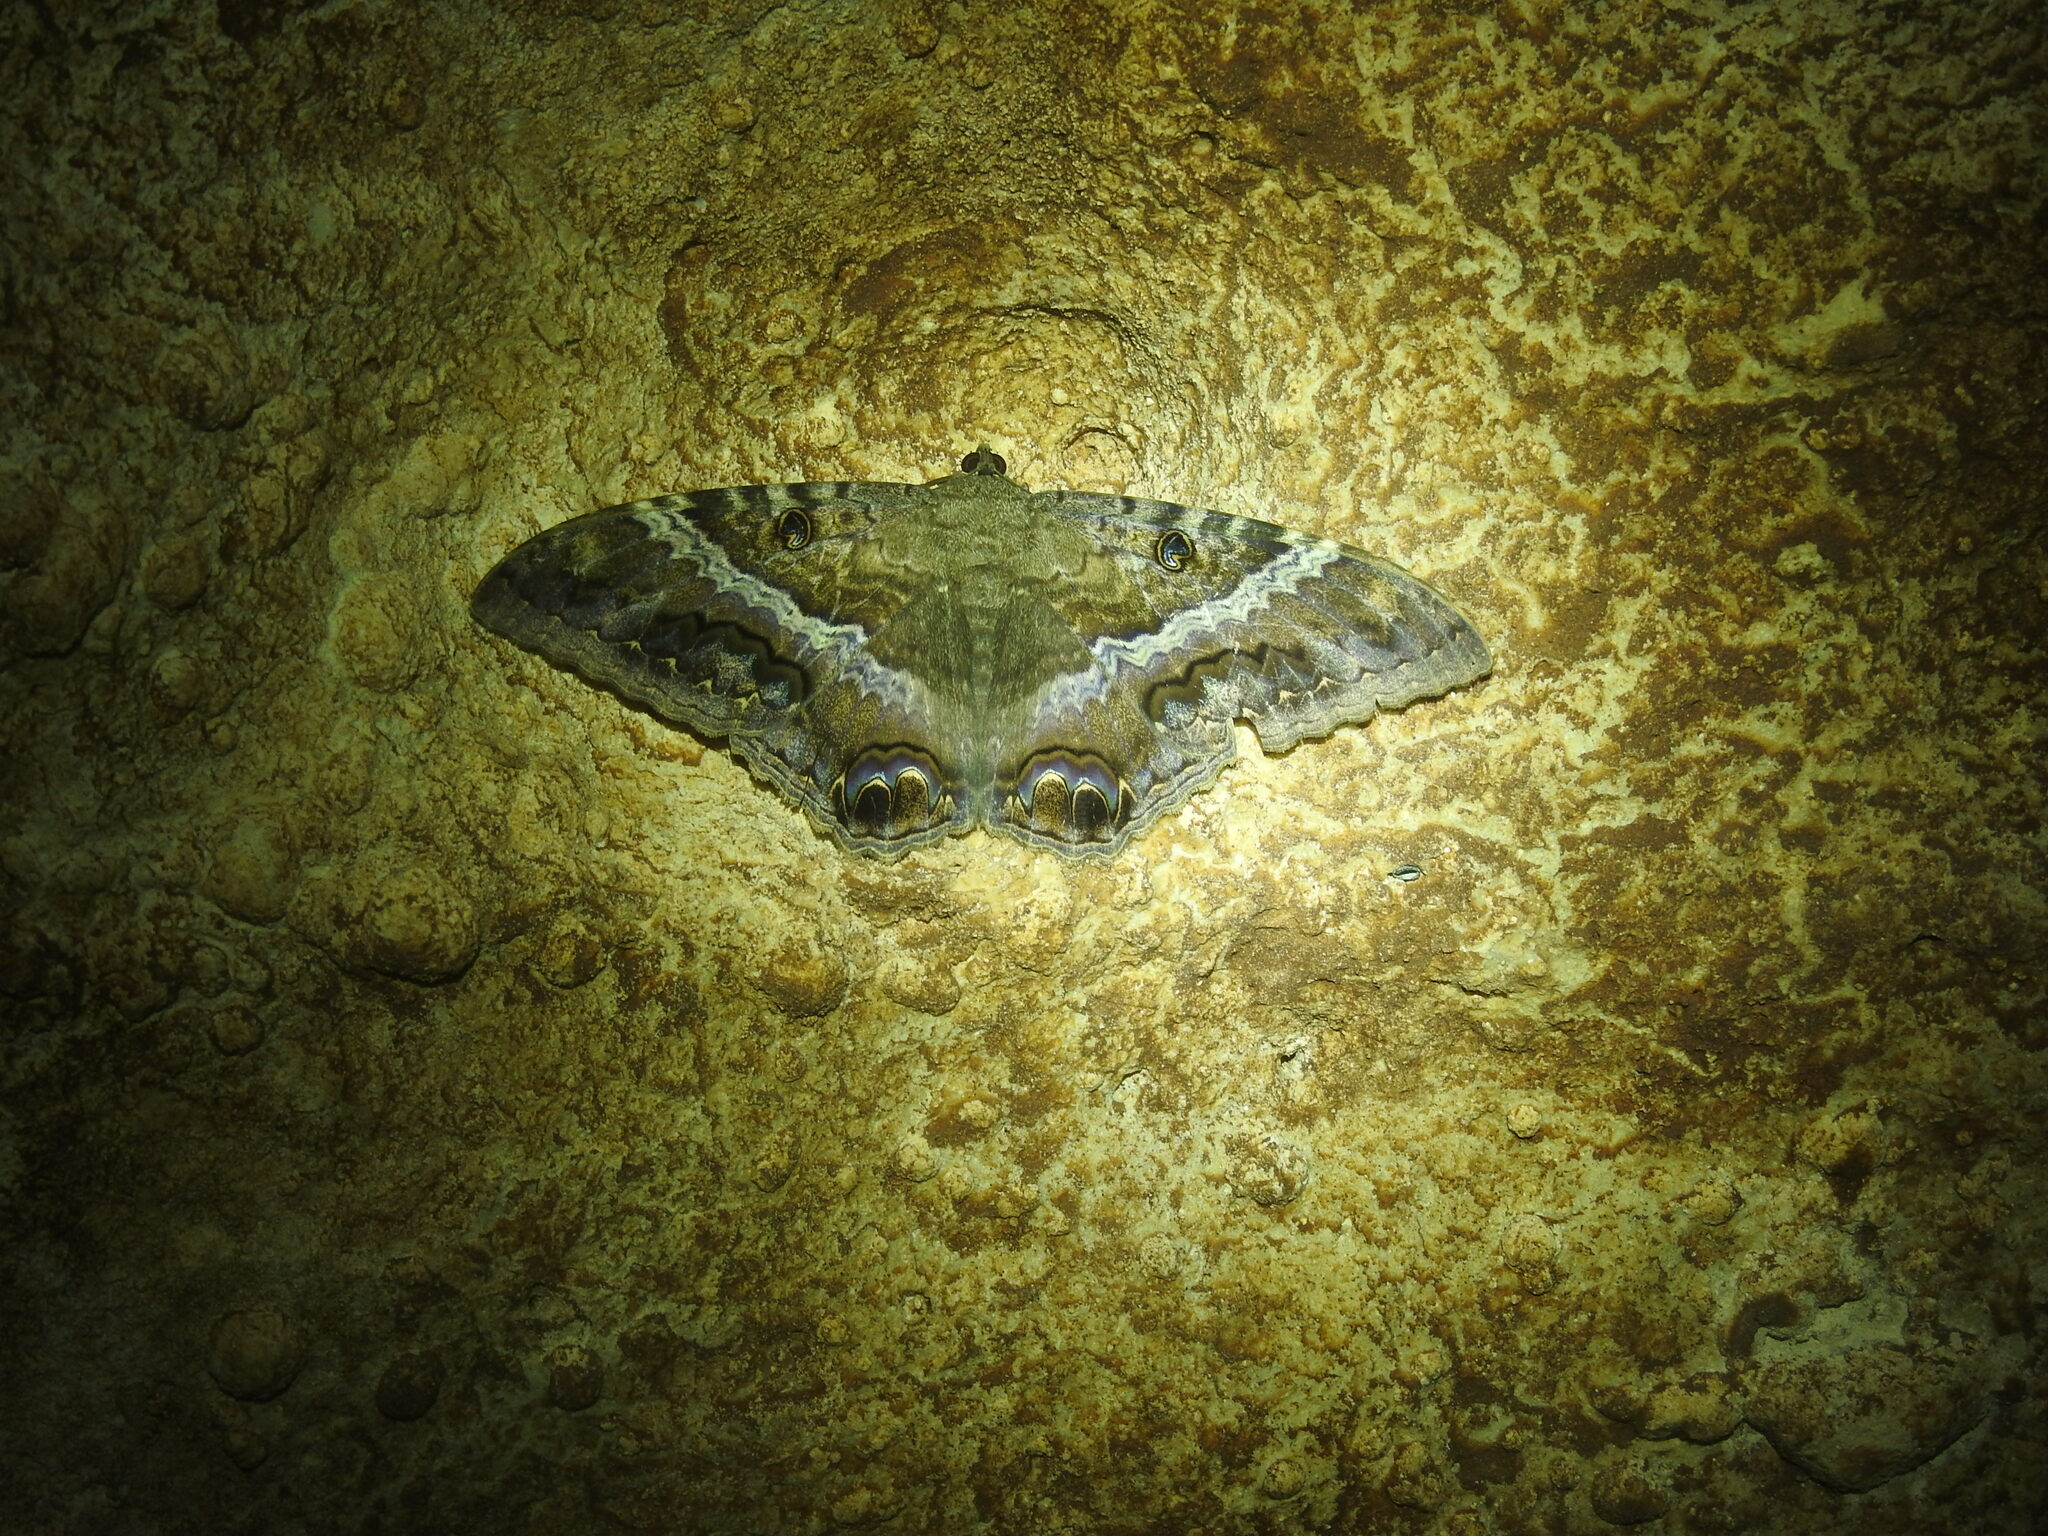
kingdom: Animalia
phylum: Arthropoda
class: Insecta
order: Lepidoptera
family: Erebidae
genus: Ascalapha
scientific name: Ascalapha odorata
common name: Black witch
